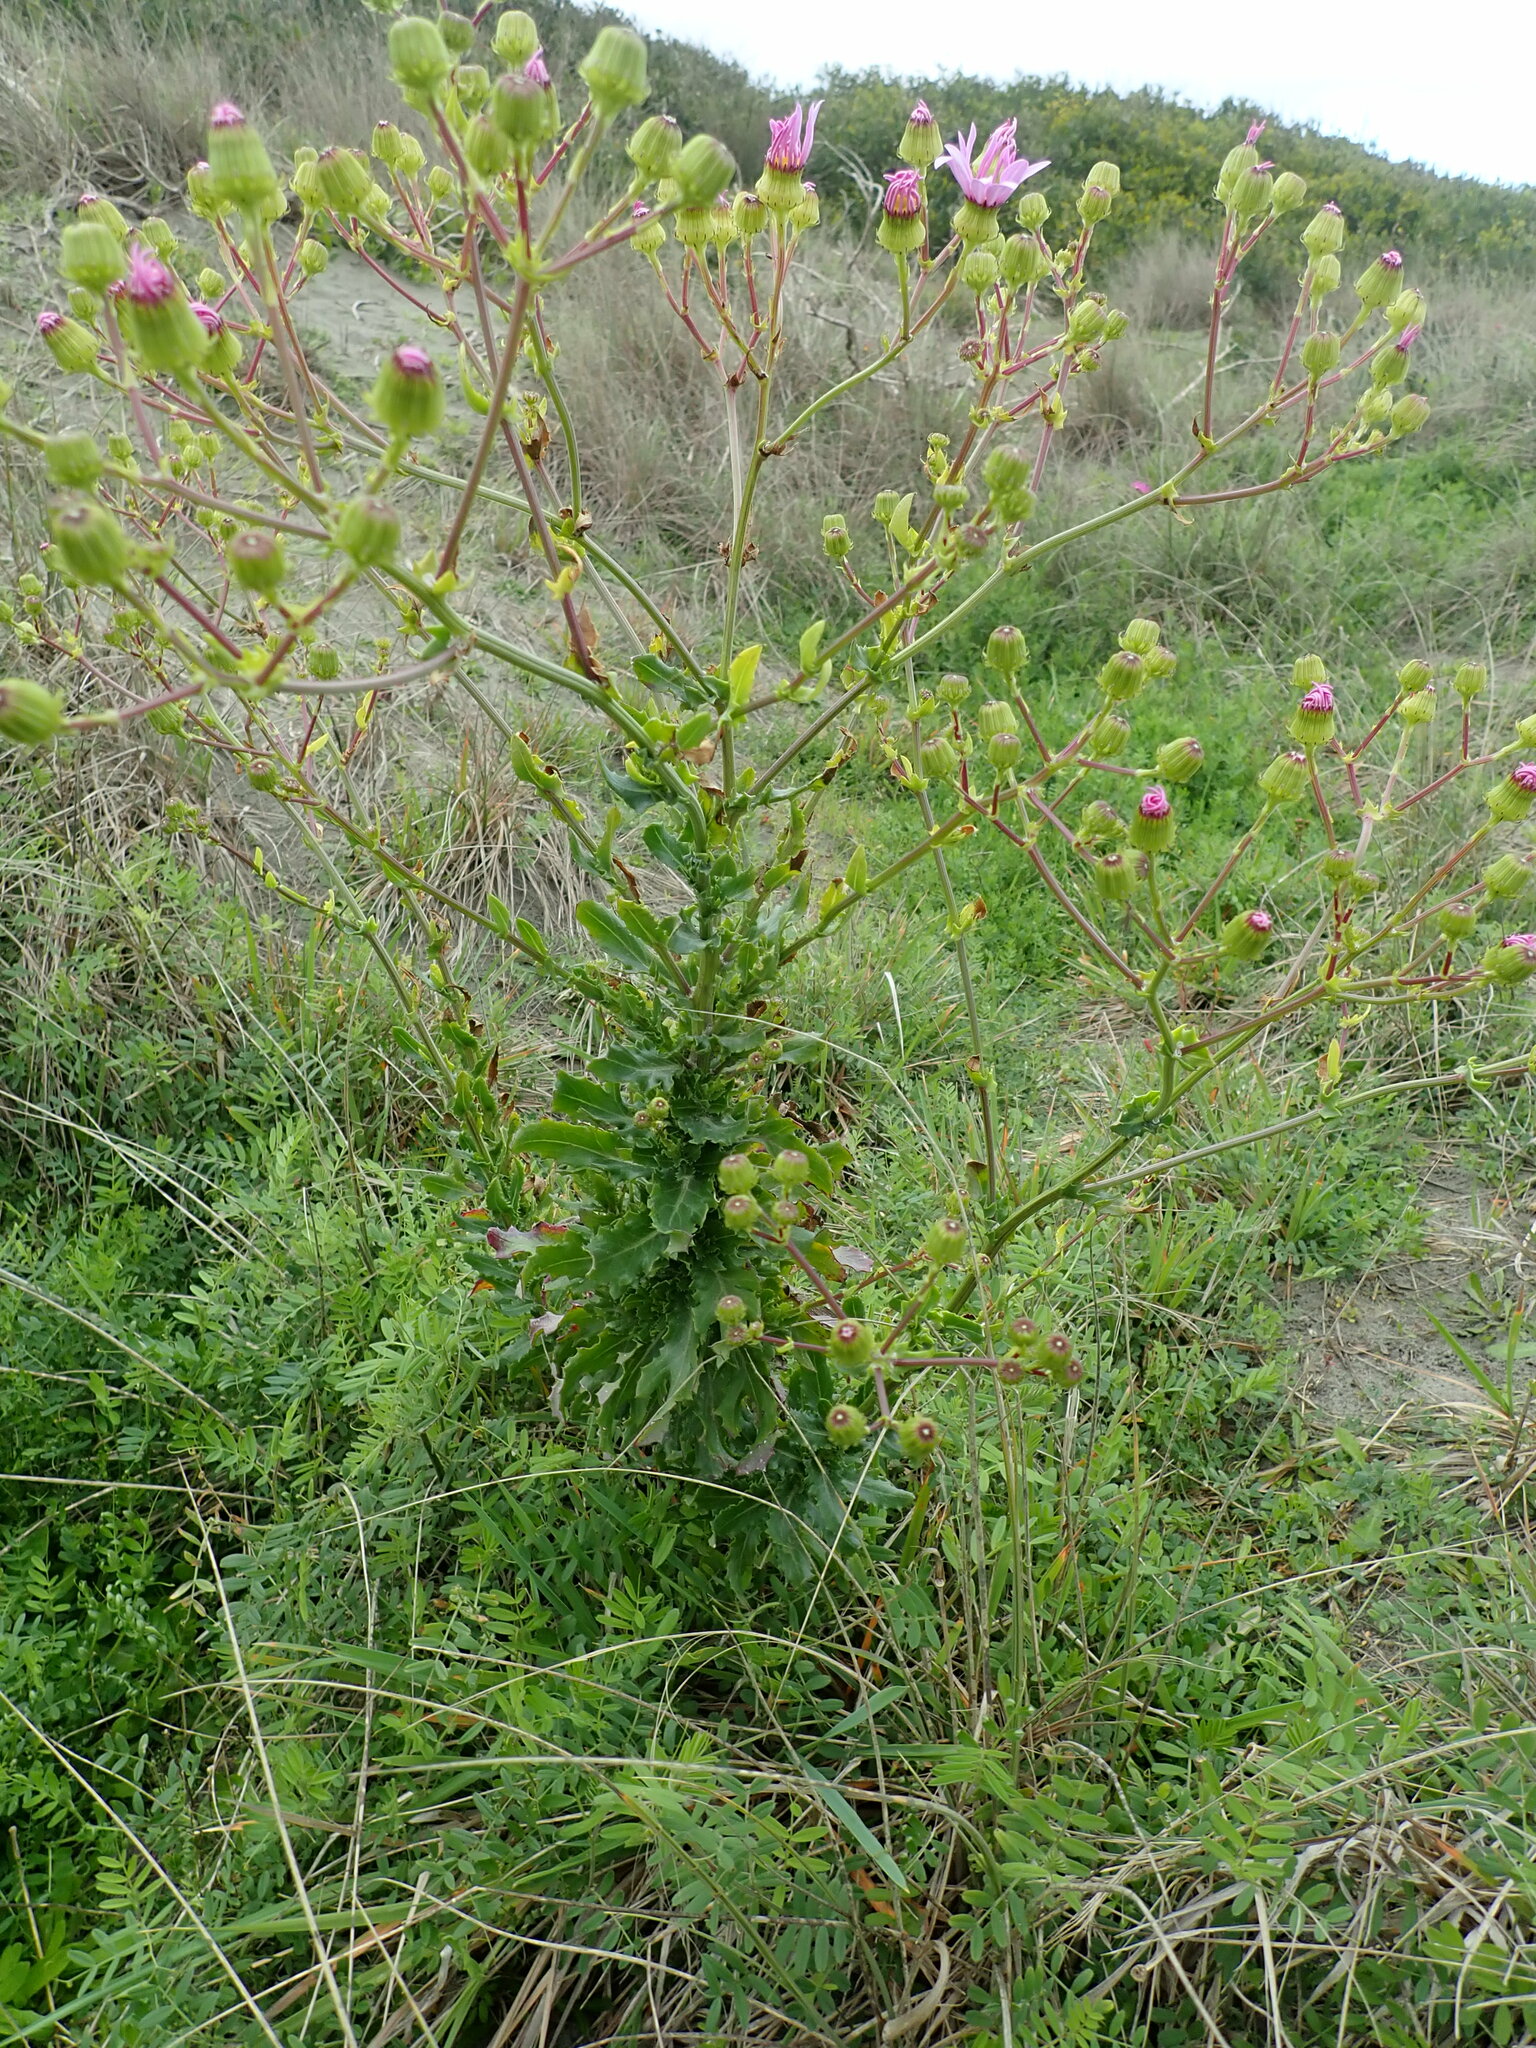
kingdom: Plantae
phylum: Tracheophyta
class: Magnoliopsida
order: Asterales
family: Asteraceae
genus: Senecio
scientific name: Senecio glastifolius
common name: Woad-leaved ragwort
